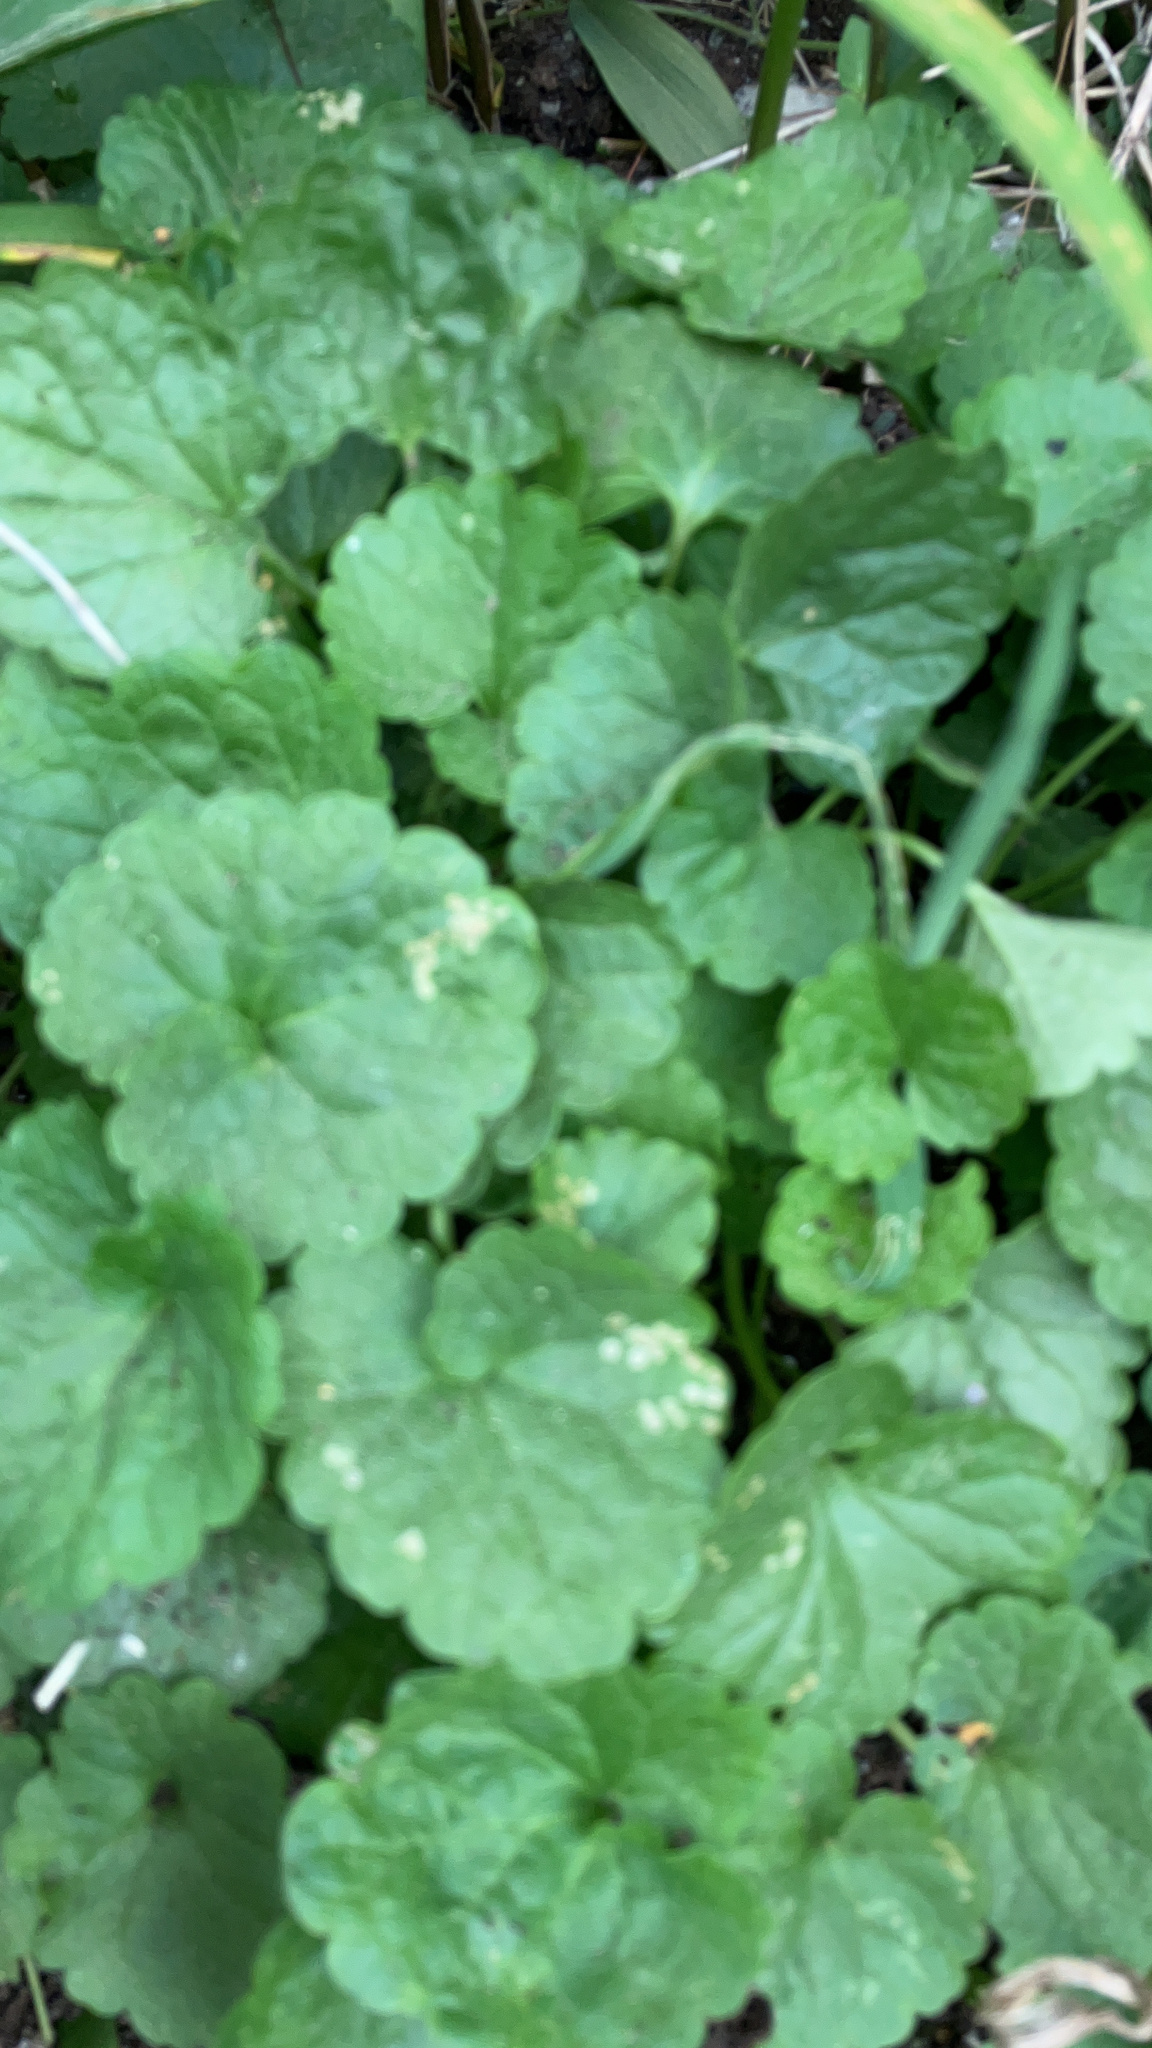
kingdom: Plantae
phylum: Tracheophyta
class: Magnoliopsida
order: Lamiales
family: Lamiaceae
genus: Glechoma
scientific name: Glechoma hederacea
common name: Ground ivy
